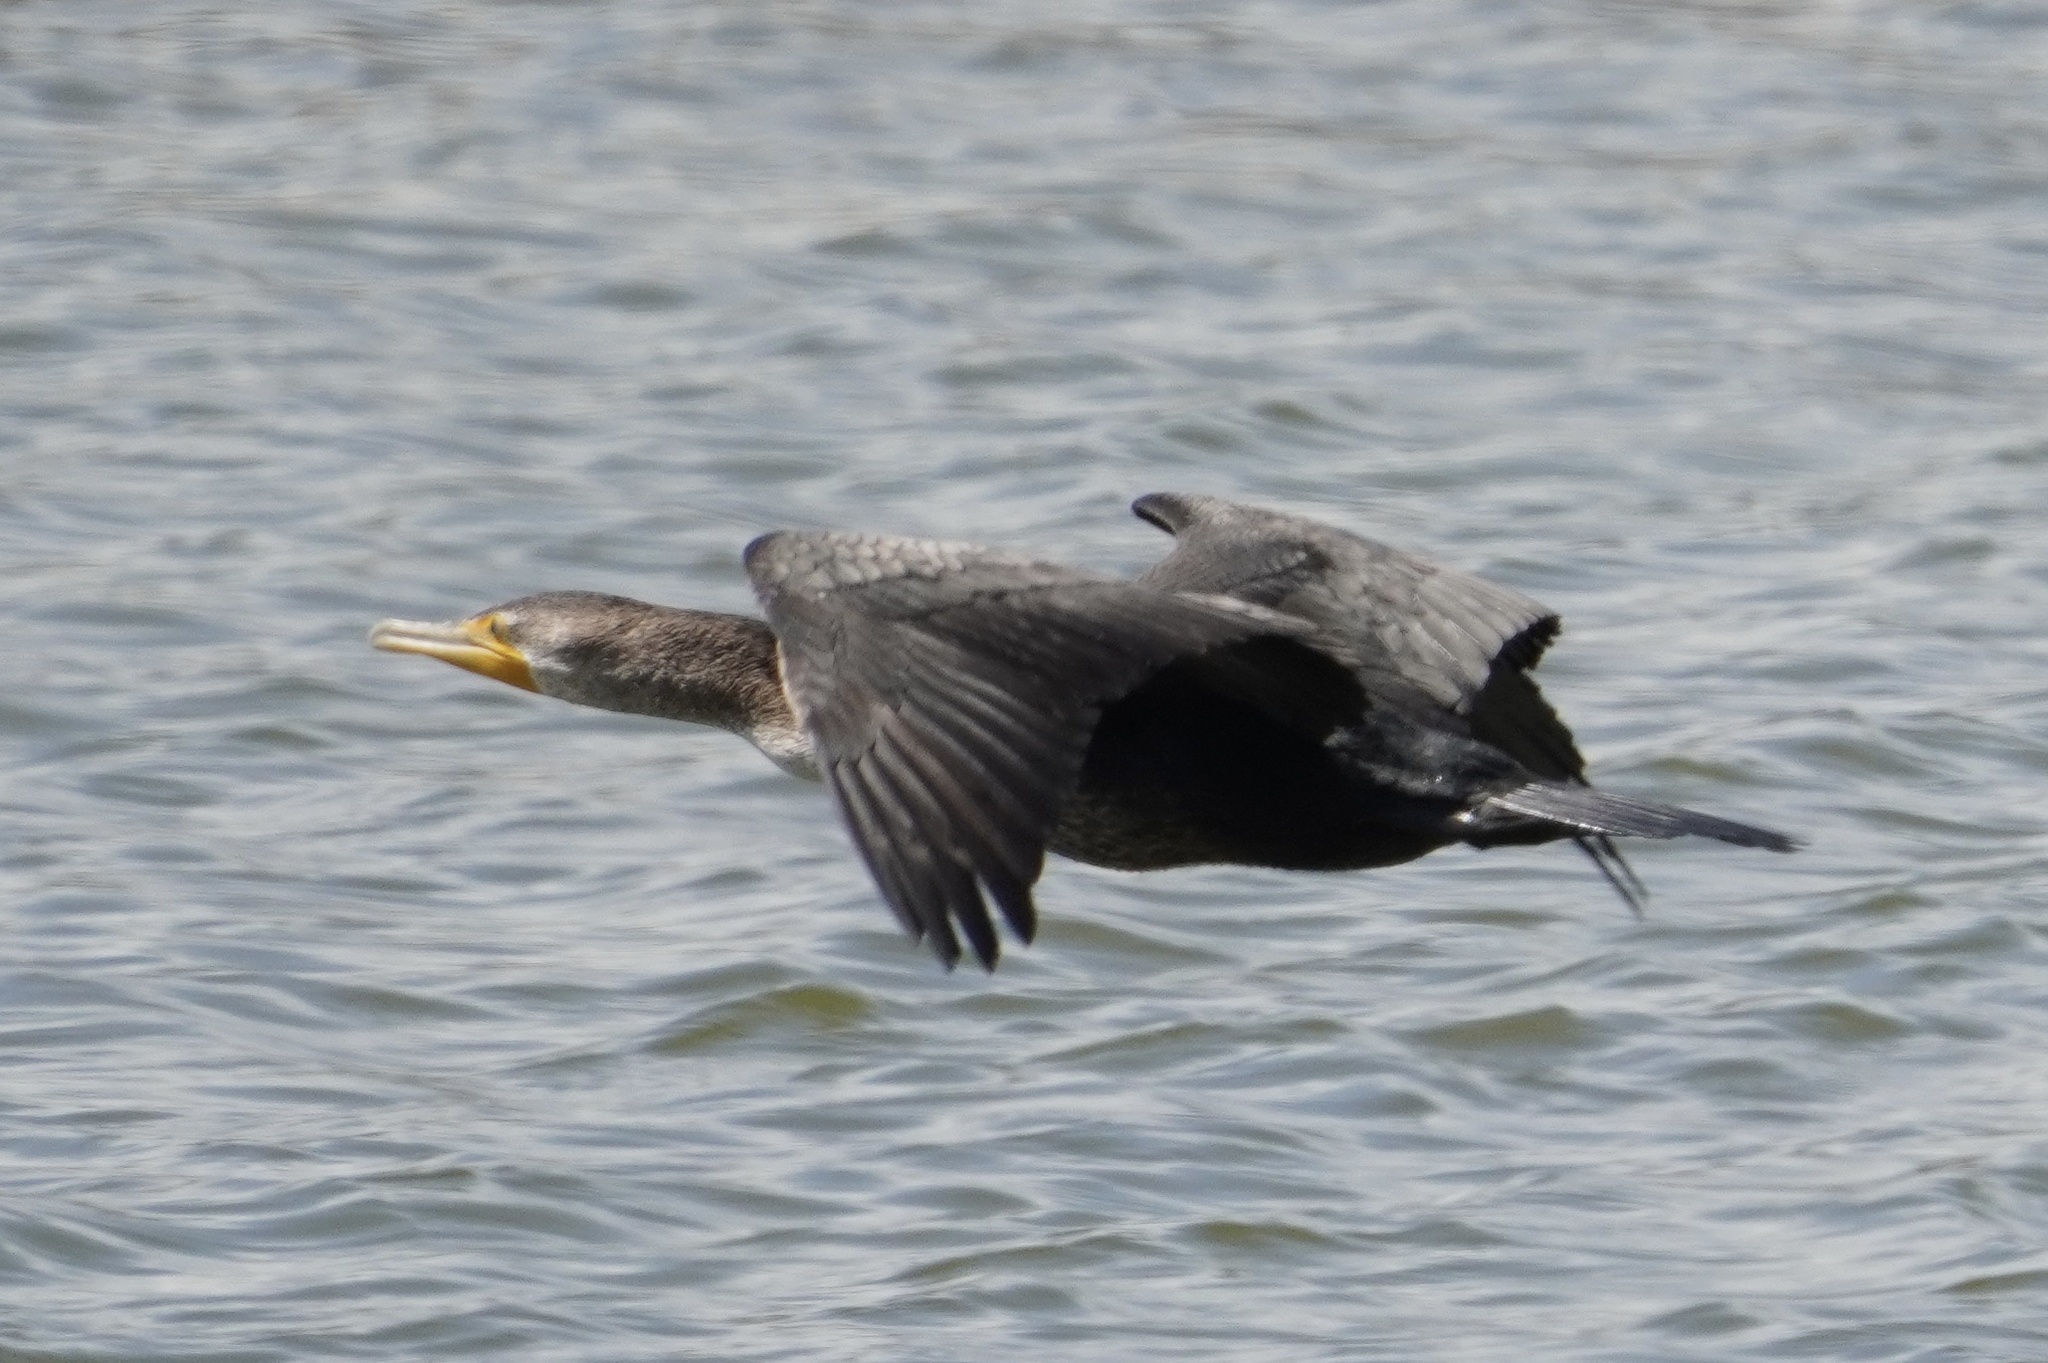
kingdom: Animalia
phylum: Chordata
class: Aves
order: Suliformes
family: Phalacrocoracidae
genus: Phalacrocorax
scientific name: Phalacrocorax auritus
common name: Double-crested cormorant
